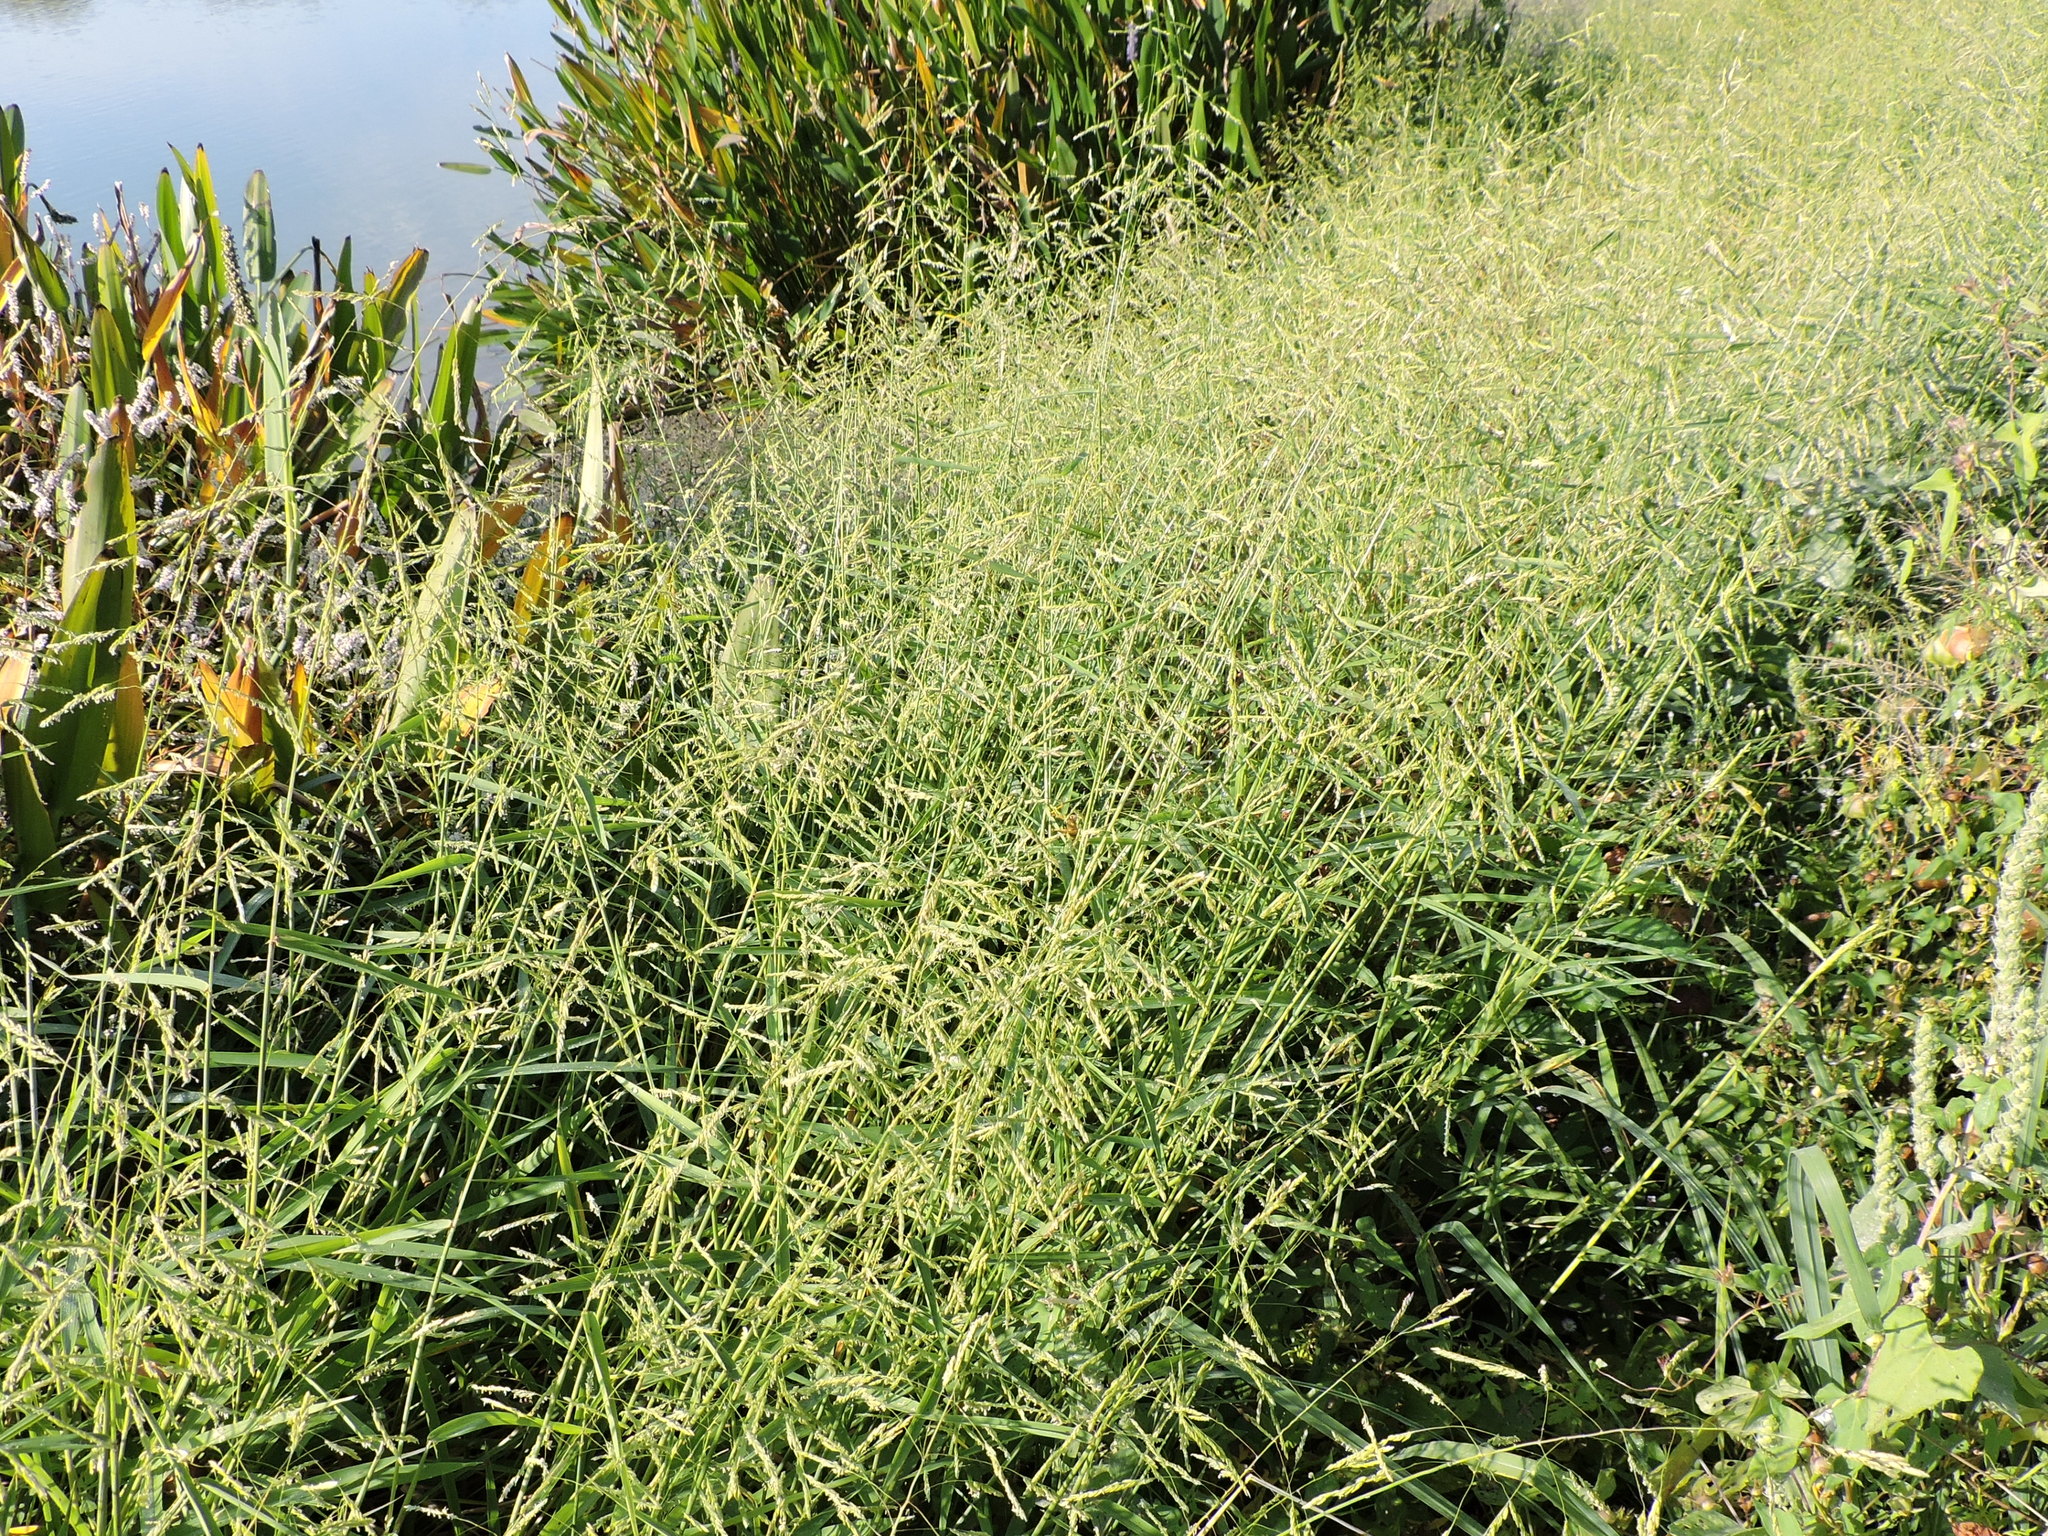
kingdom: Plantae
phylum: Tracheophyta
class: Liliopsida
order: Poales
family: Poaceae
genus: Leersia
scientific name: Leersia oryzoides
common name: Cut-grass
